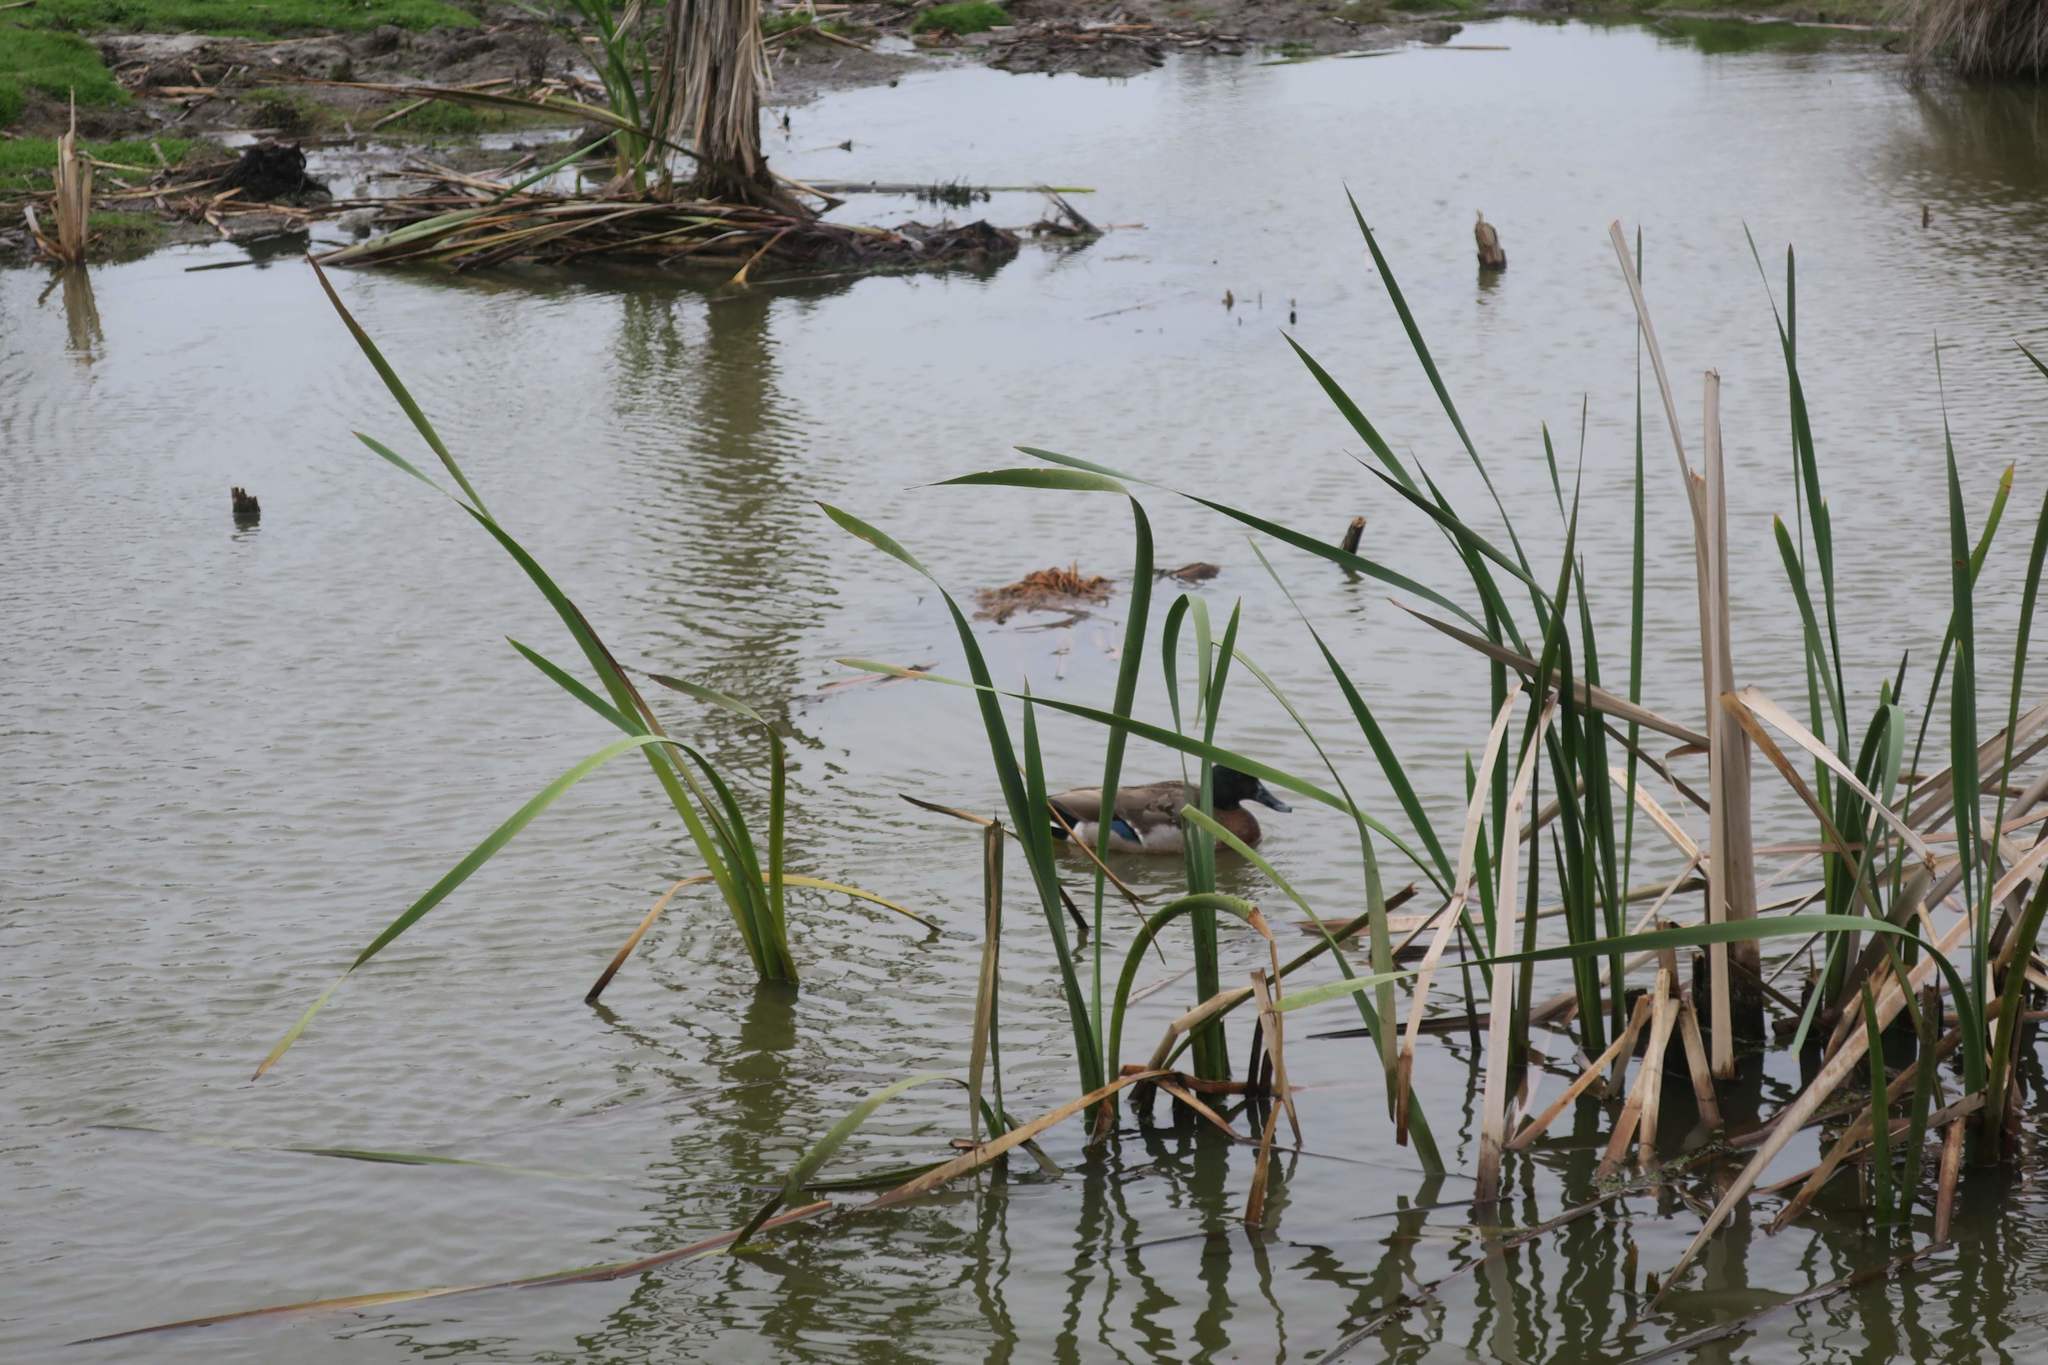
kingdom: Animalia
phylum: Chordata
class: Aves
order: Anseriformes
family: Anatidae
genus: Anas
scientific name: Anas platyrhynchos
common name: Mallard
